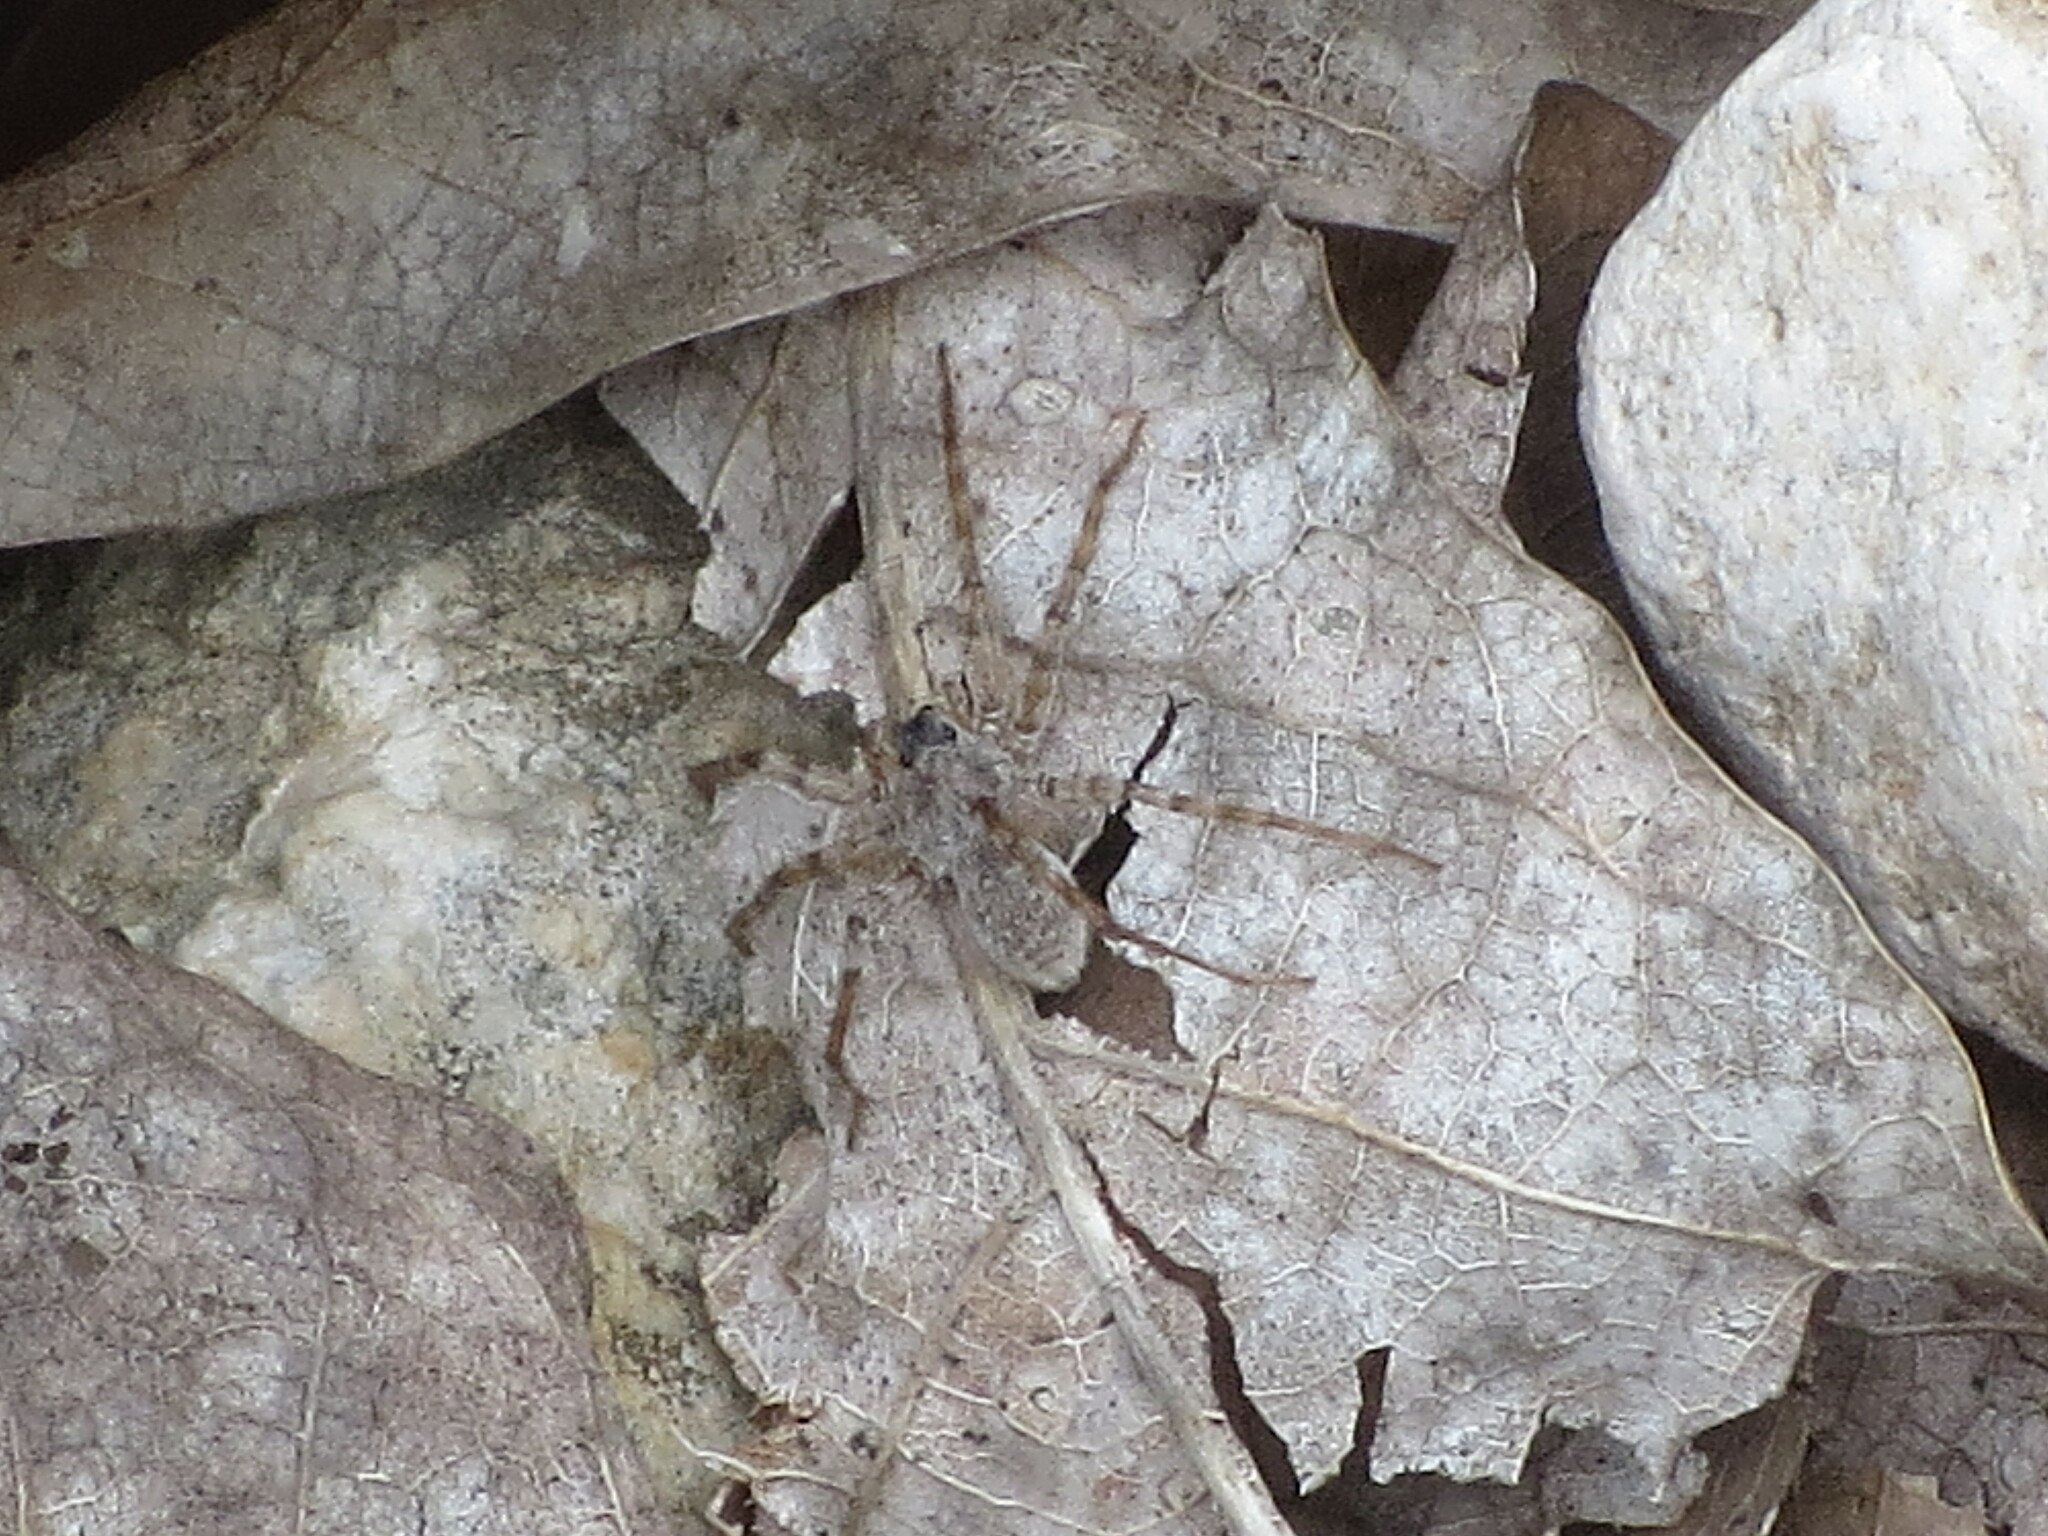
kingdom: Animalia
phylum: Arthropoda
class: Arachnida
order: Araneae
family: Lycosidae
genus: Pardosa
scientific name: Pardosa mercurialis
